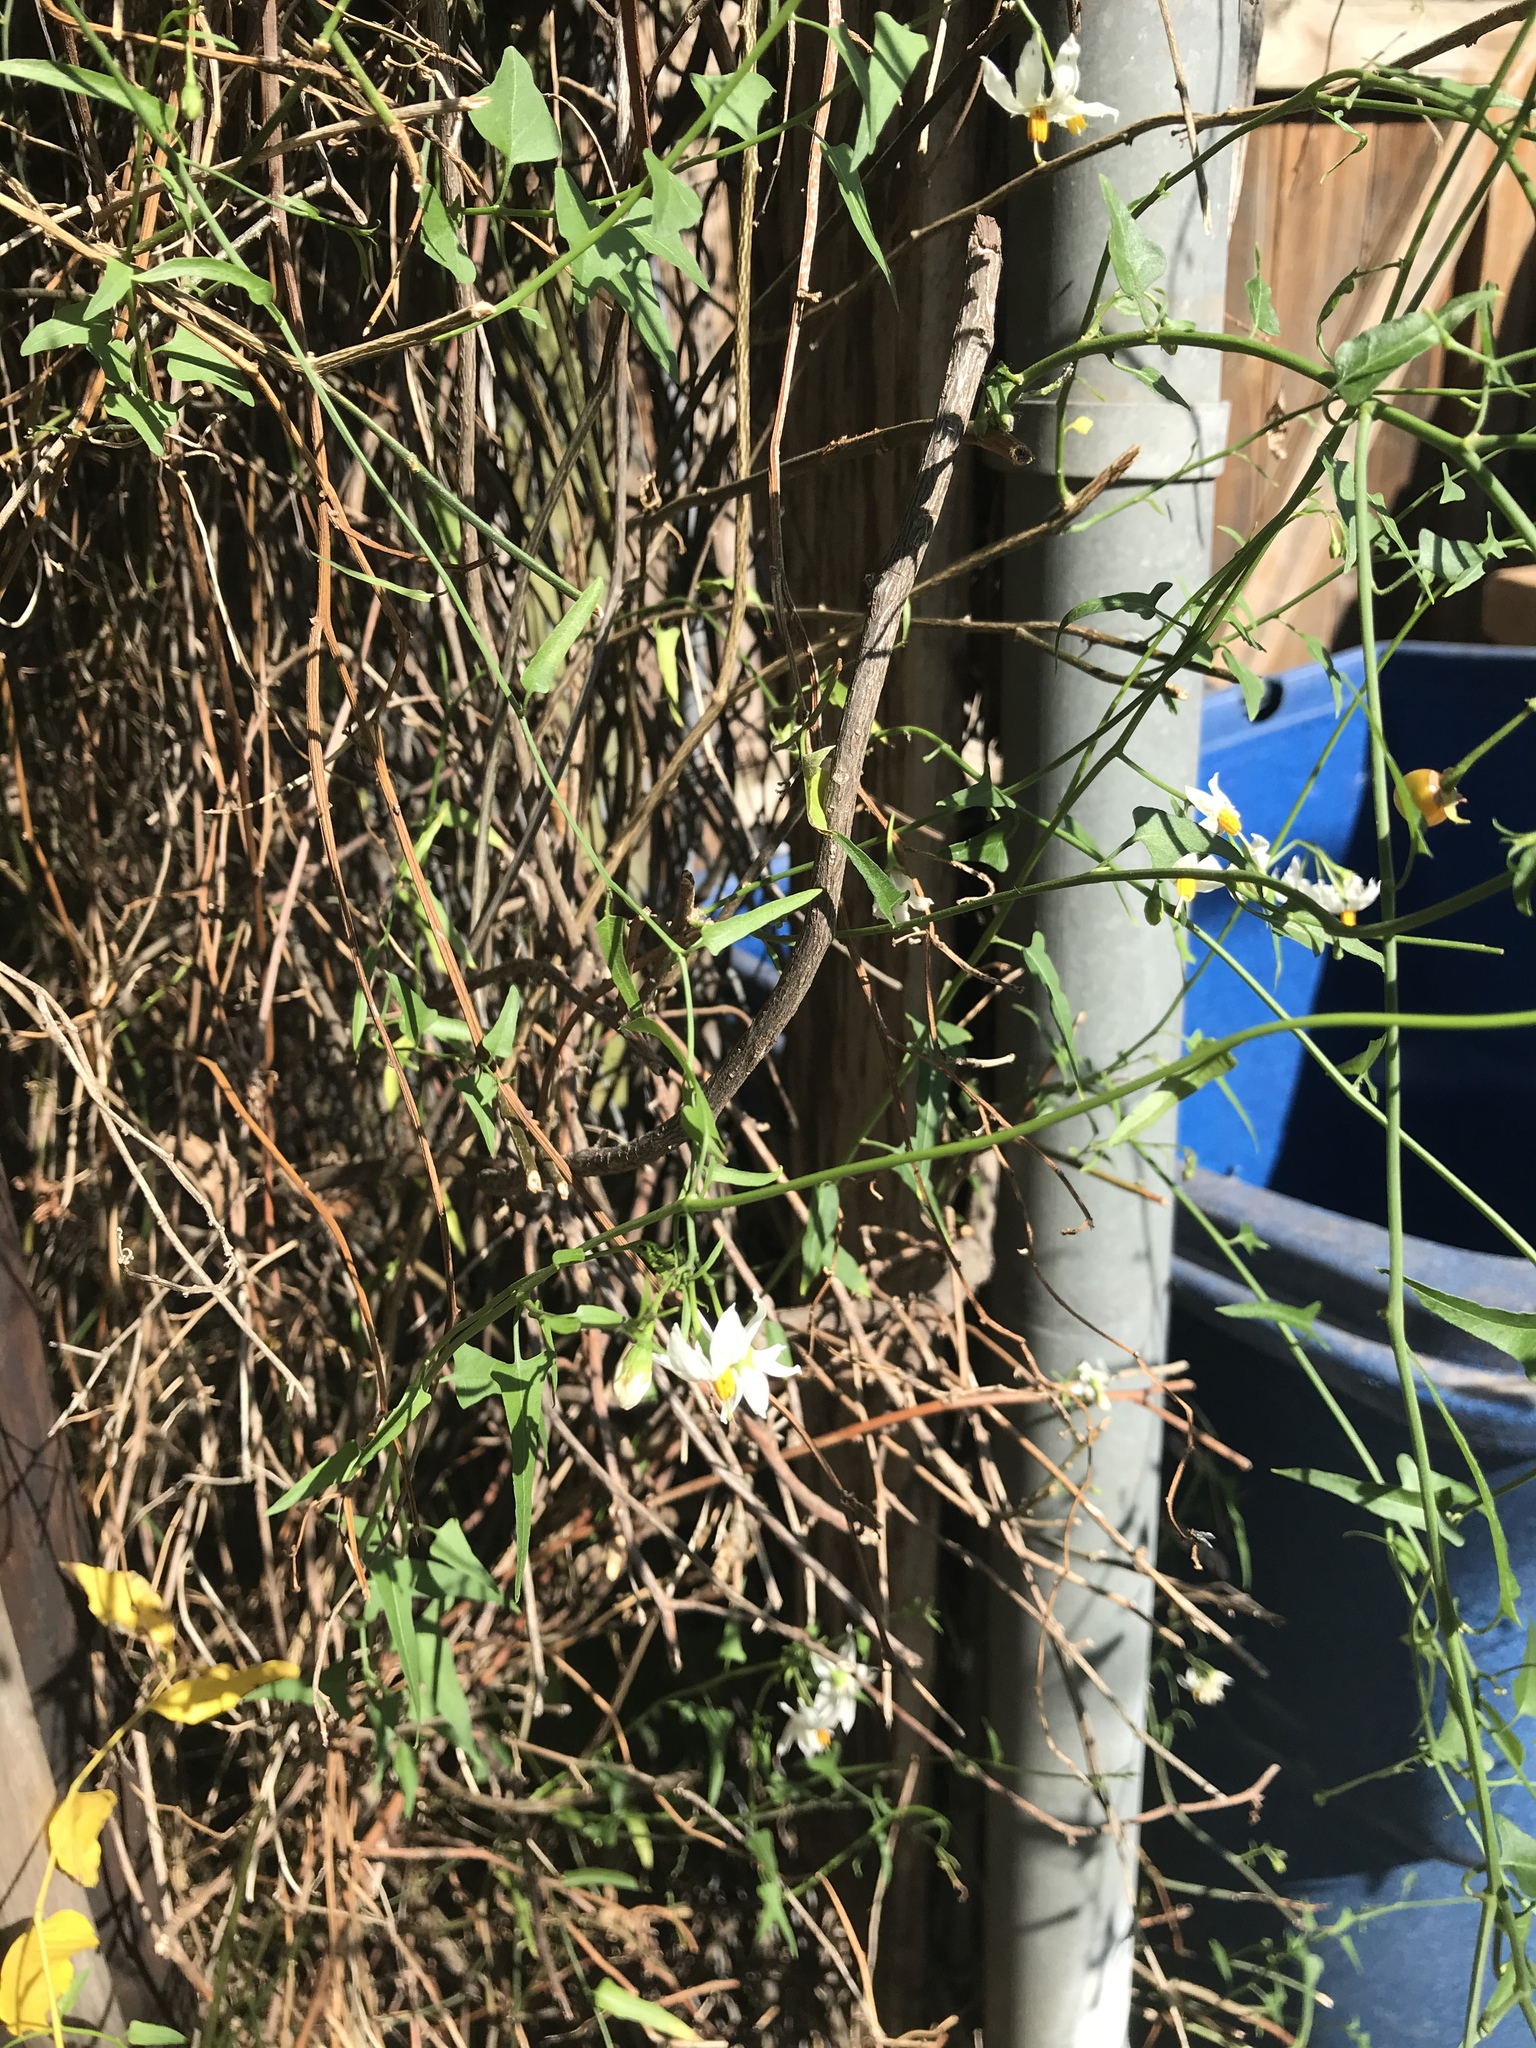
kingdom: Plantae
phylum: Tracheophyta
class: Magnoliopsida
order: Solanales
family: Solanaceae
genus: Solanum
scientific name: Solanum triquetrum
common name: Texas nightshade
